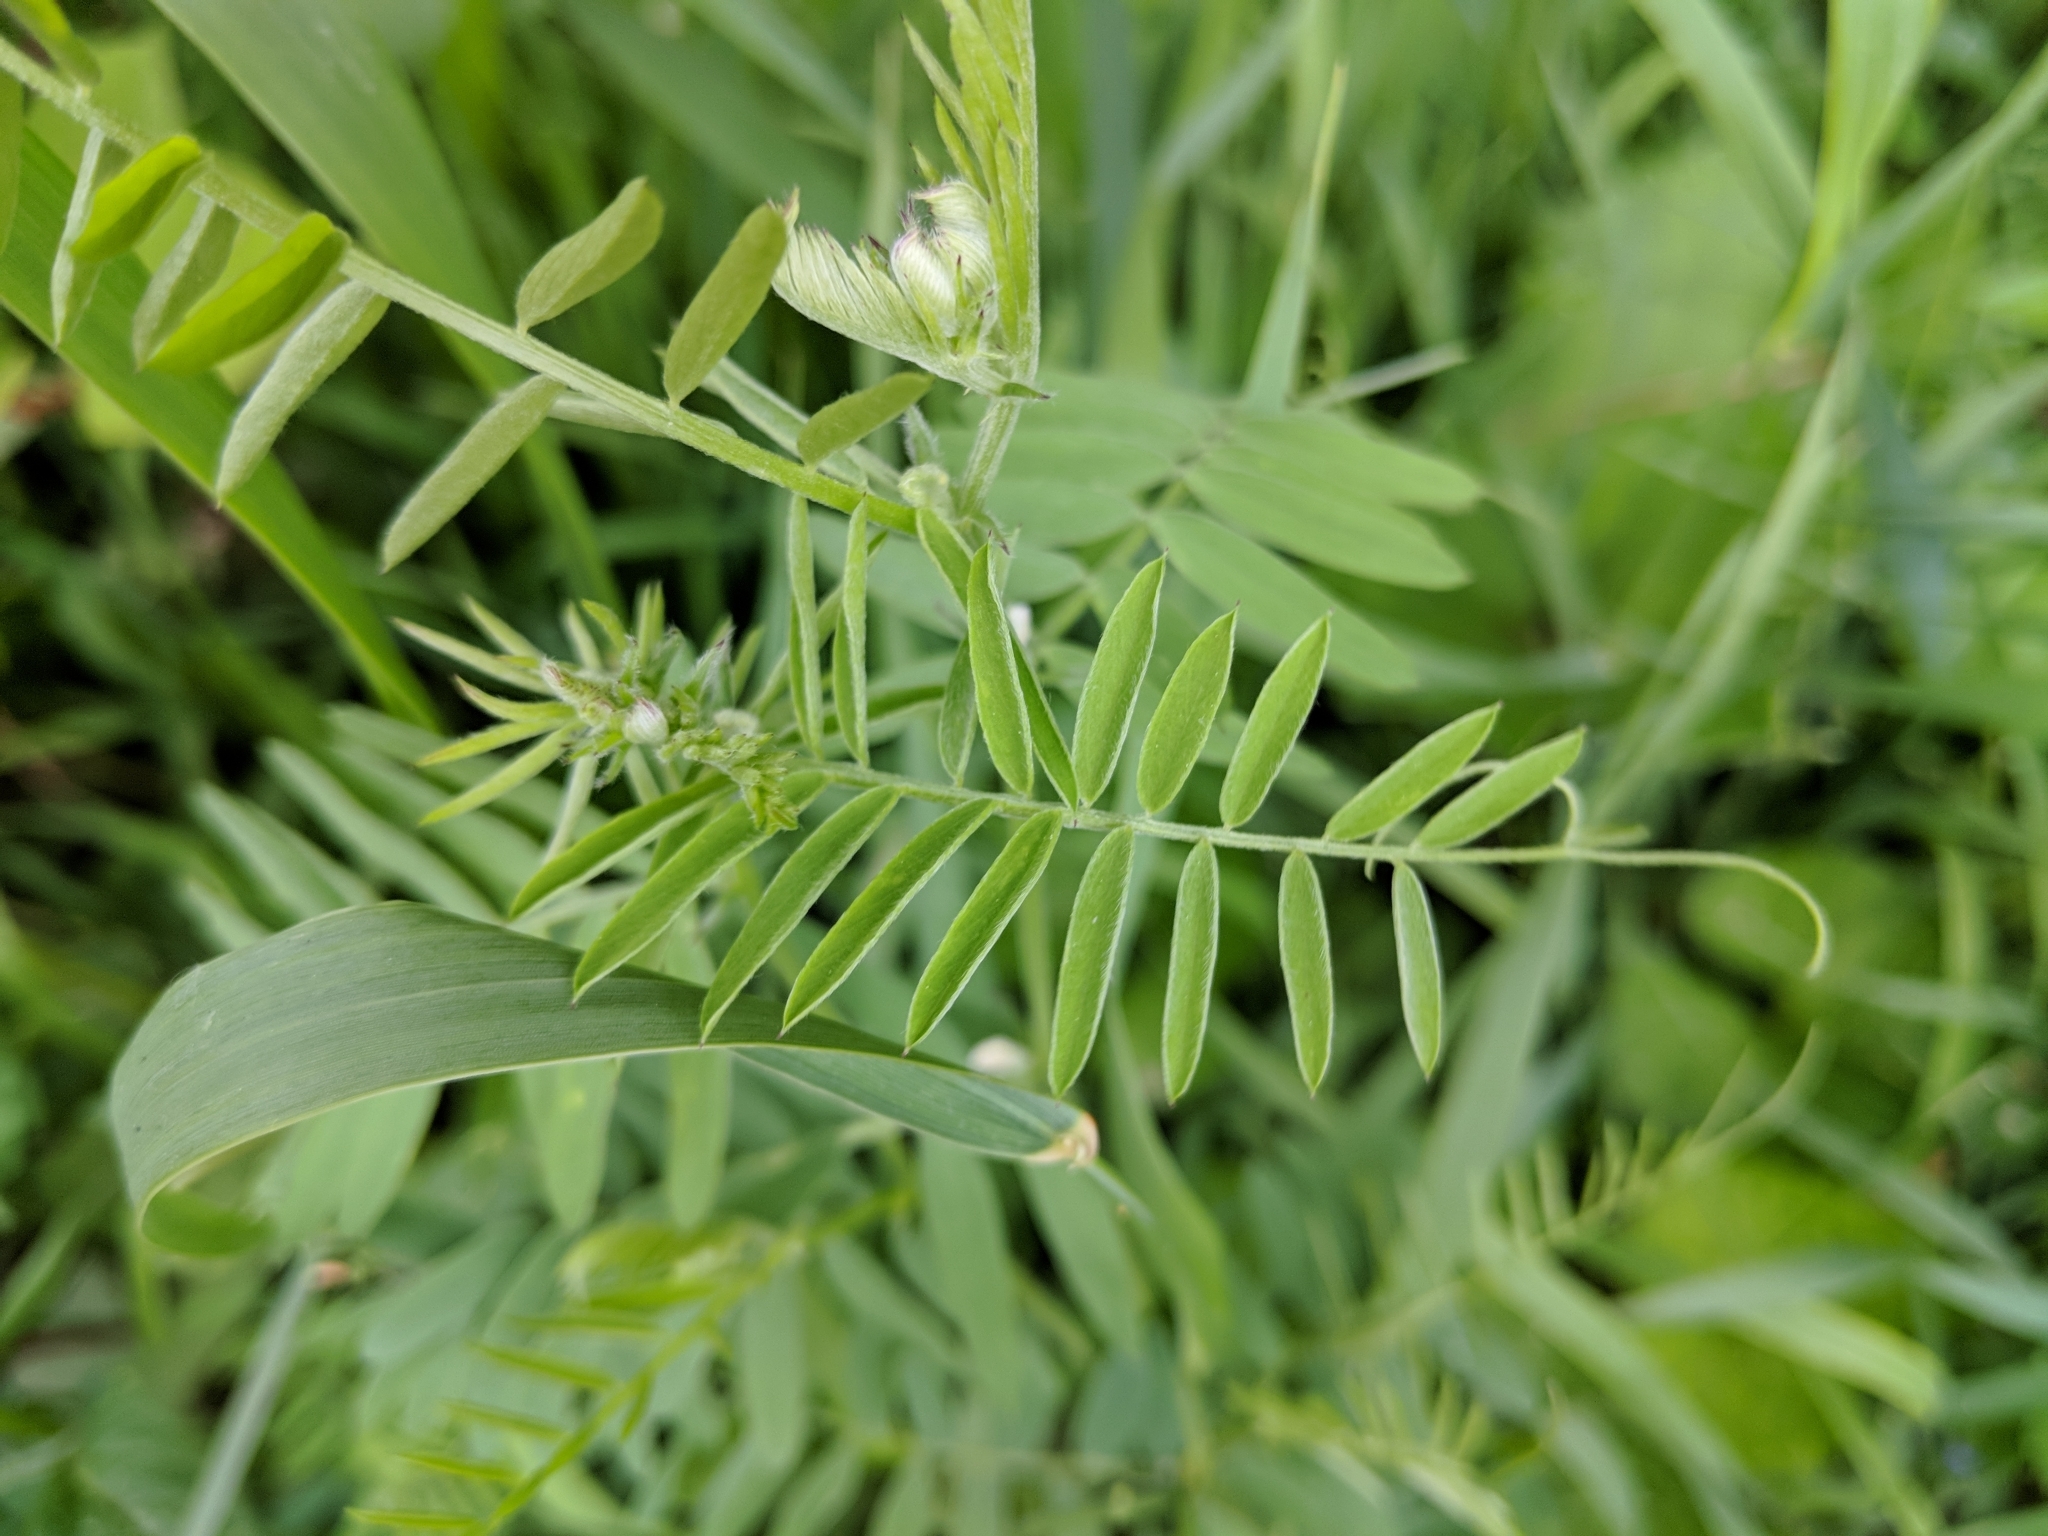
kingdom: Plantae
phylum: Tracheophyta
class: Magnoliopsida
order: Fabales
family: Fabaceae
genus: Vicia
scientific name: Vicia cracca
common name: Bird vetch
